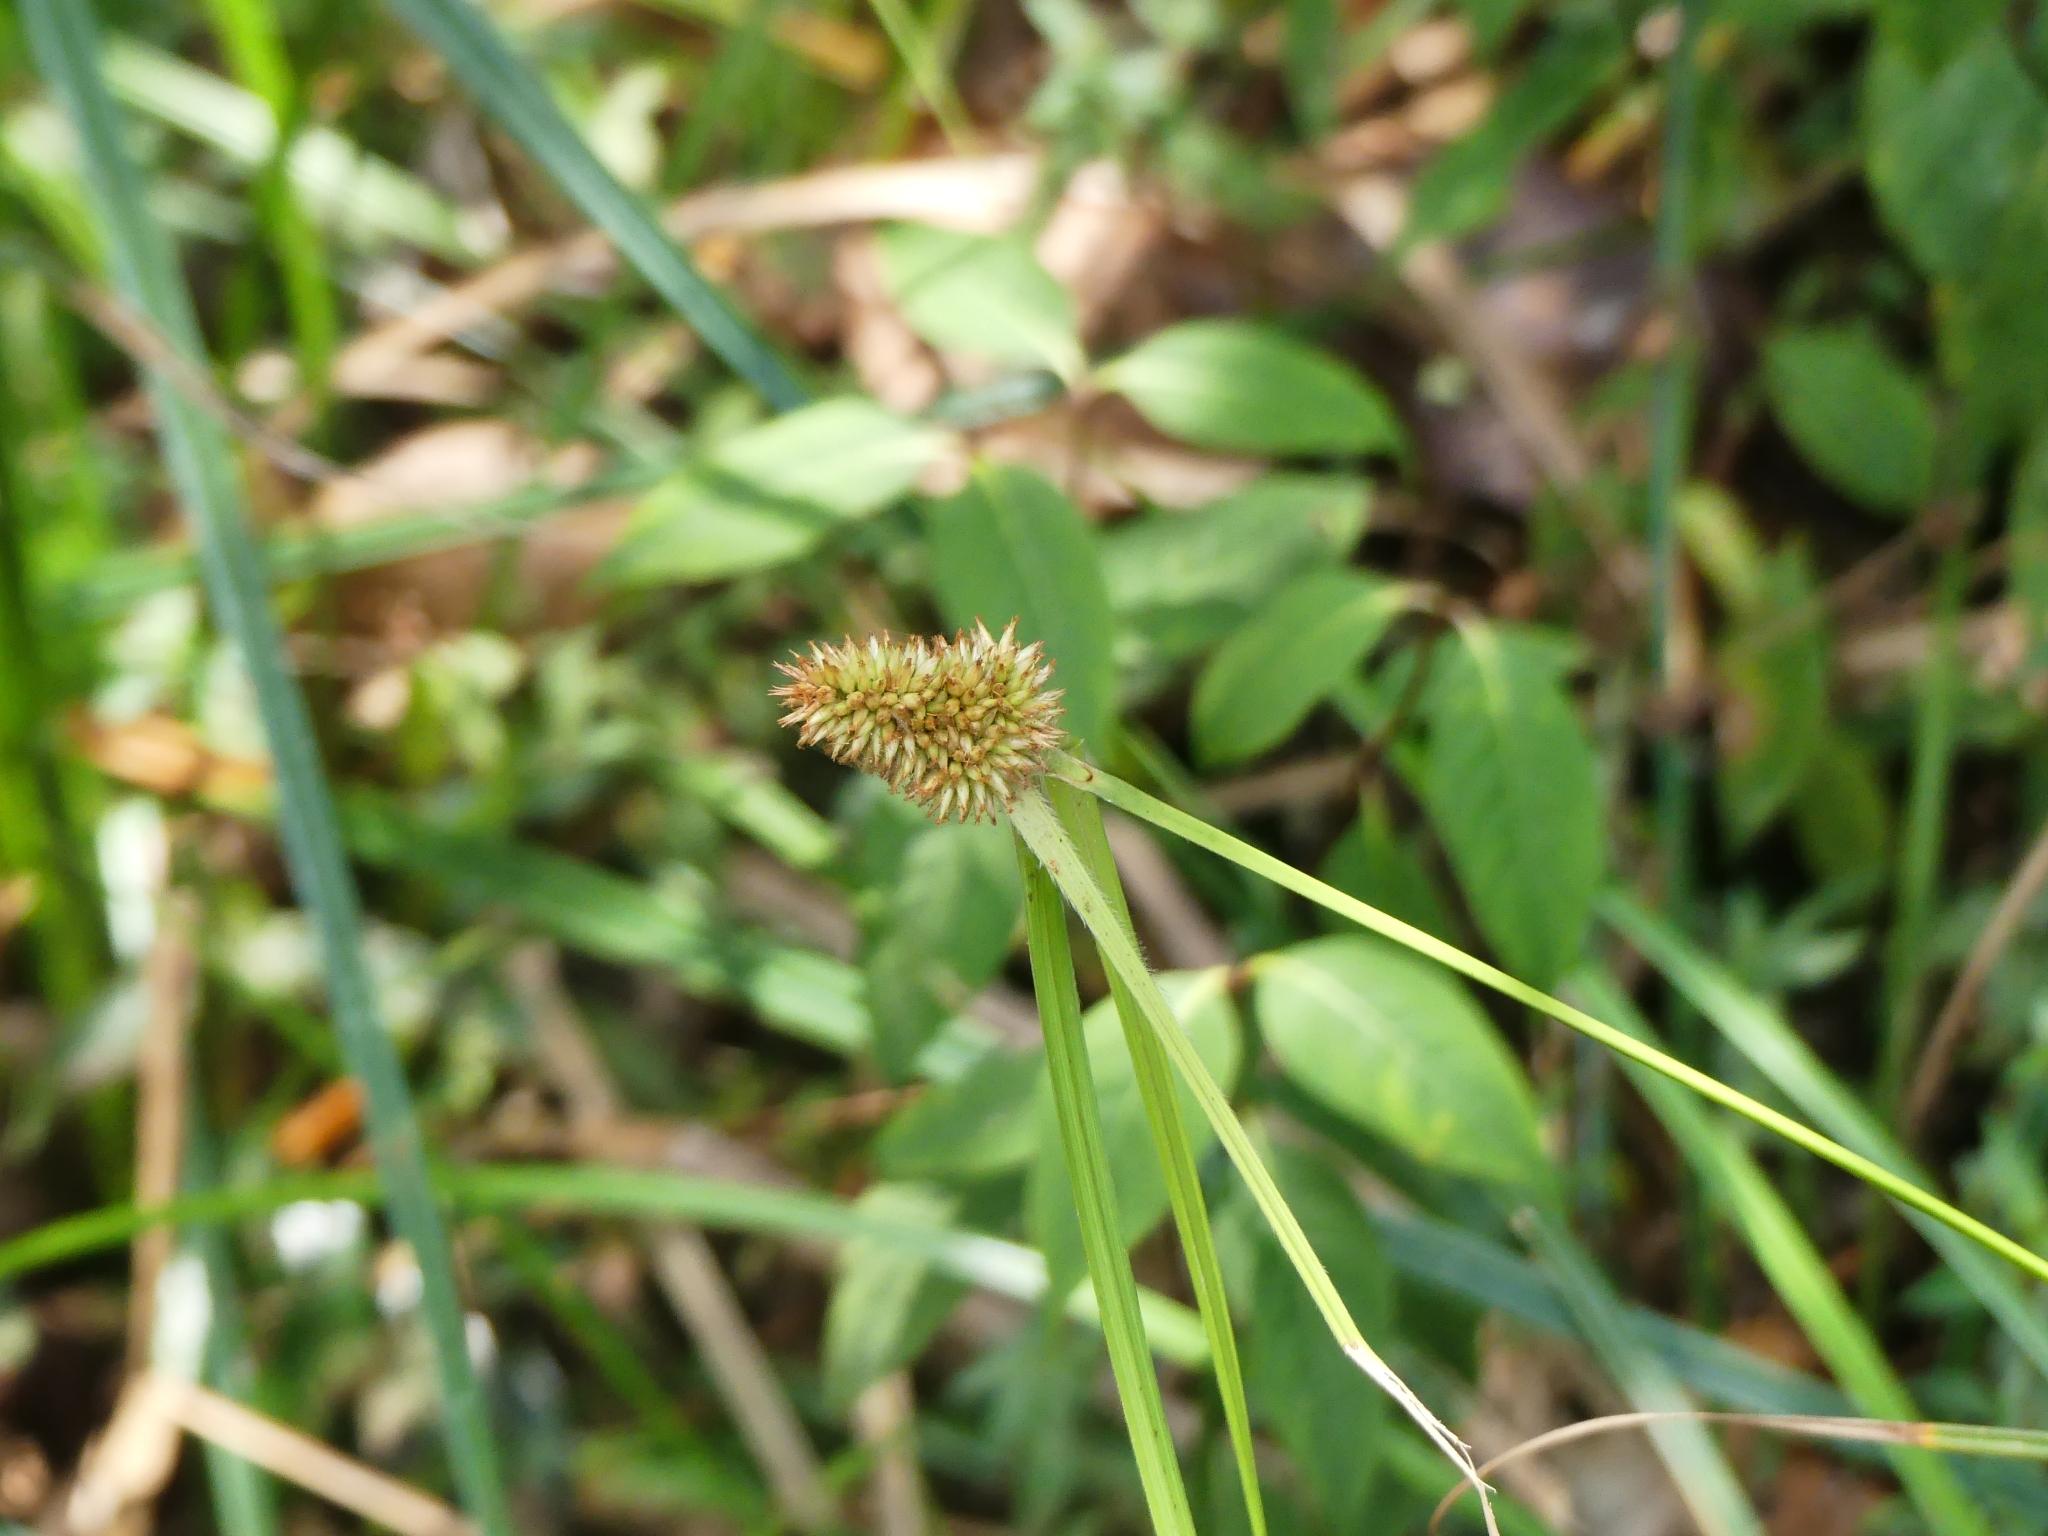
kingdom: Plantae
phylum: Tracheophyta
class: Liliopsida
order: Poales
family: Cyperaceae
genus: Rhynchospora
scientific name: Rhynchospora cephalotes
